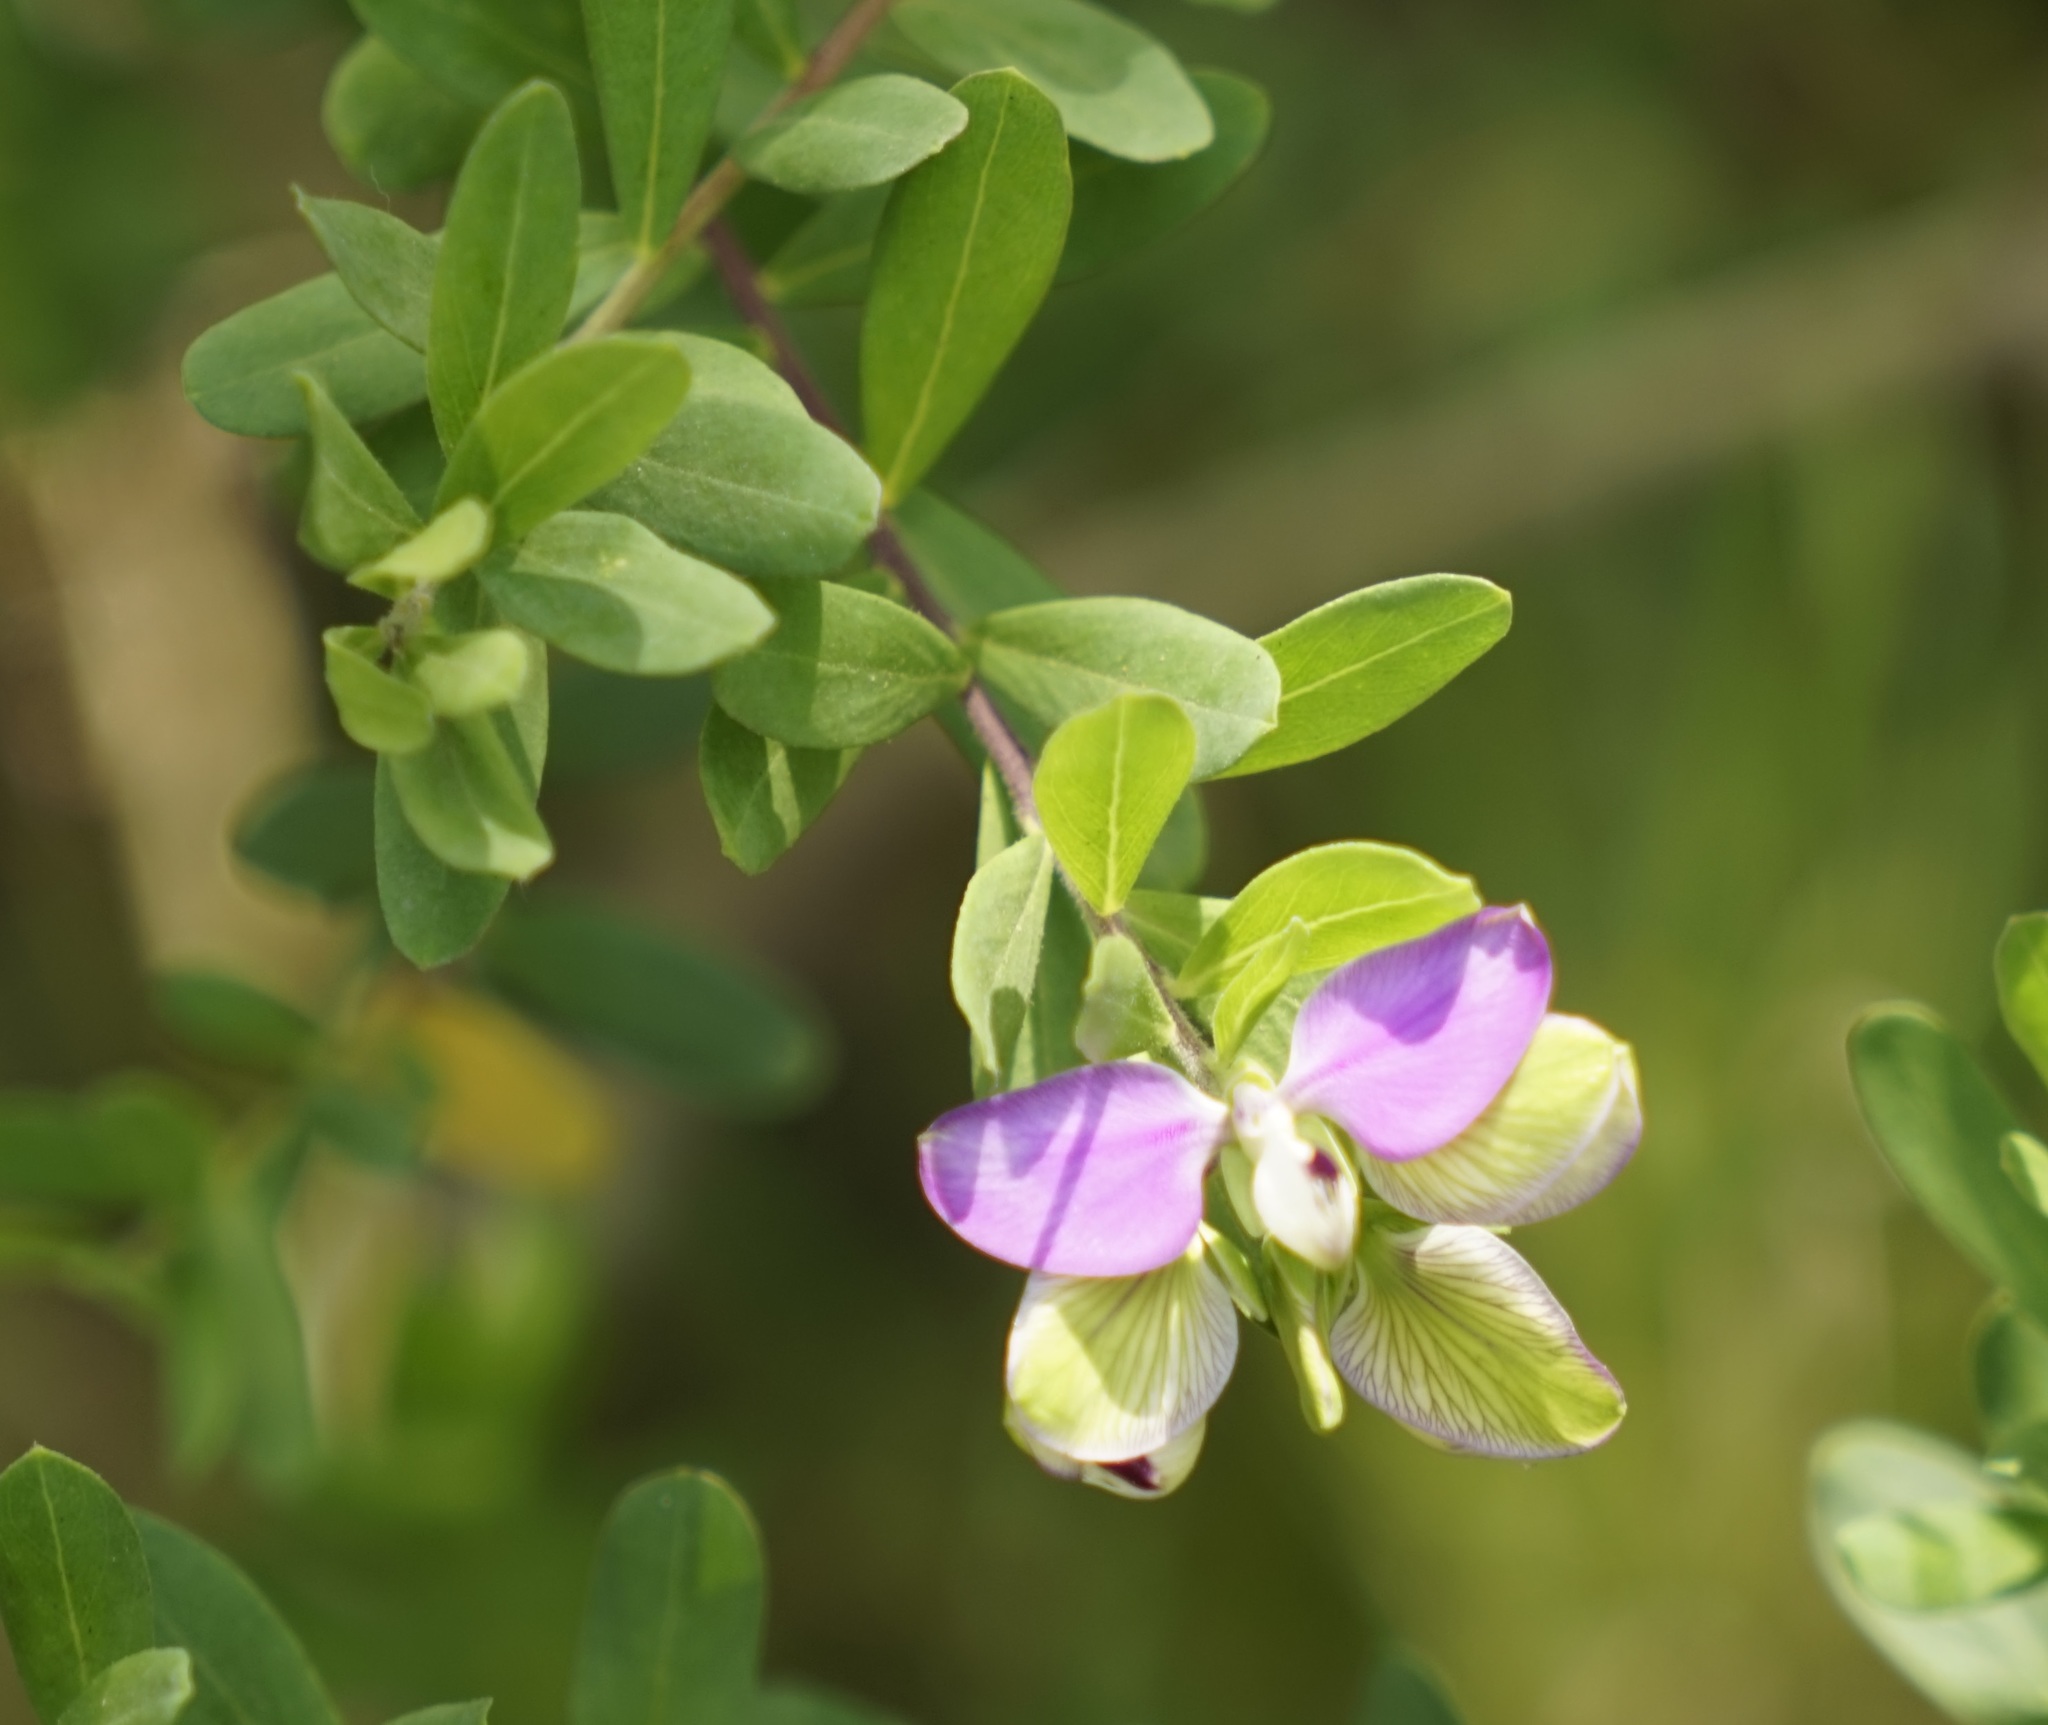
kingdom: Plantae
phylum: Tracheophyta
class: Magnoliopsida
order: Fabales
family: Polygalaceae
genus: Polygala
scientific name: Polygala myrtifolia
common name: Myrtle-leaf milkwort
